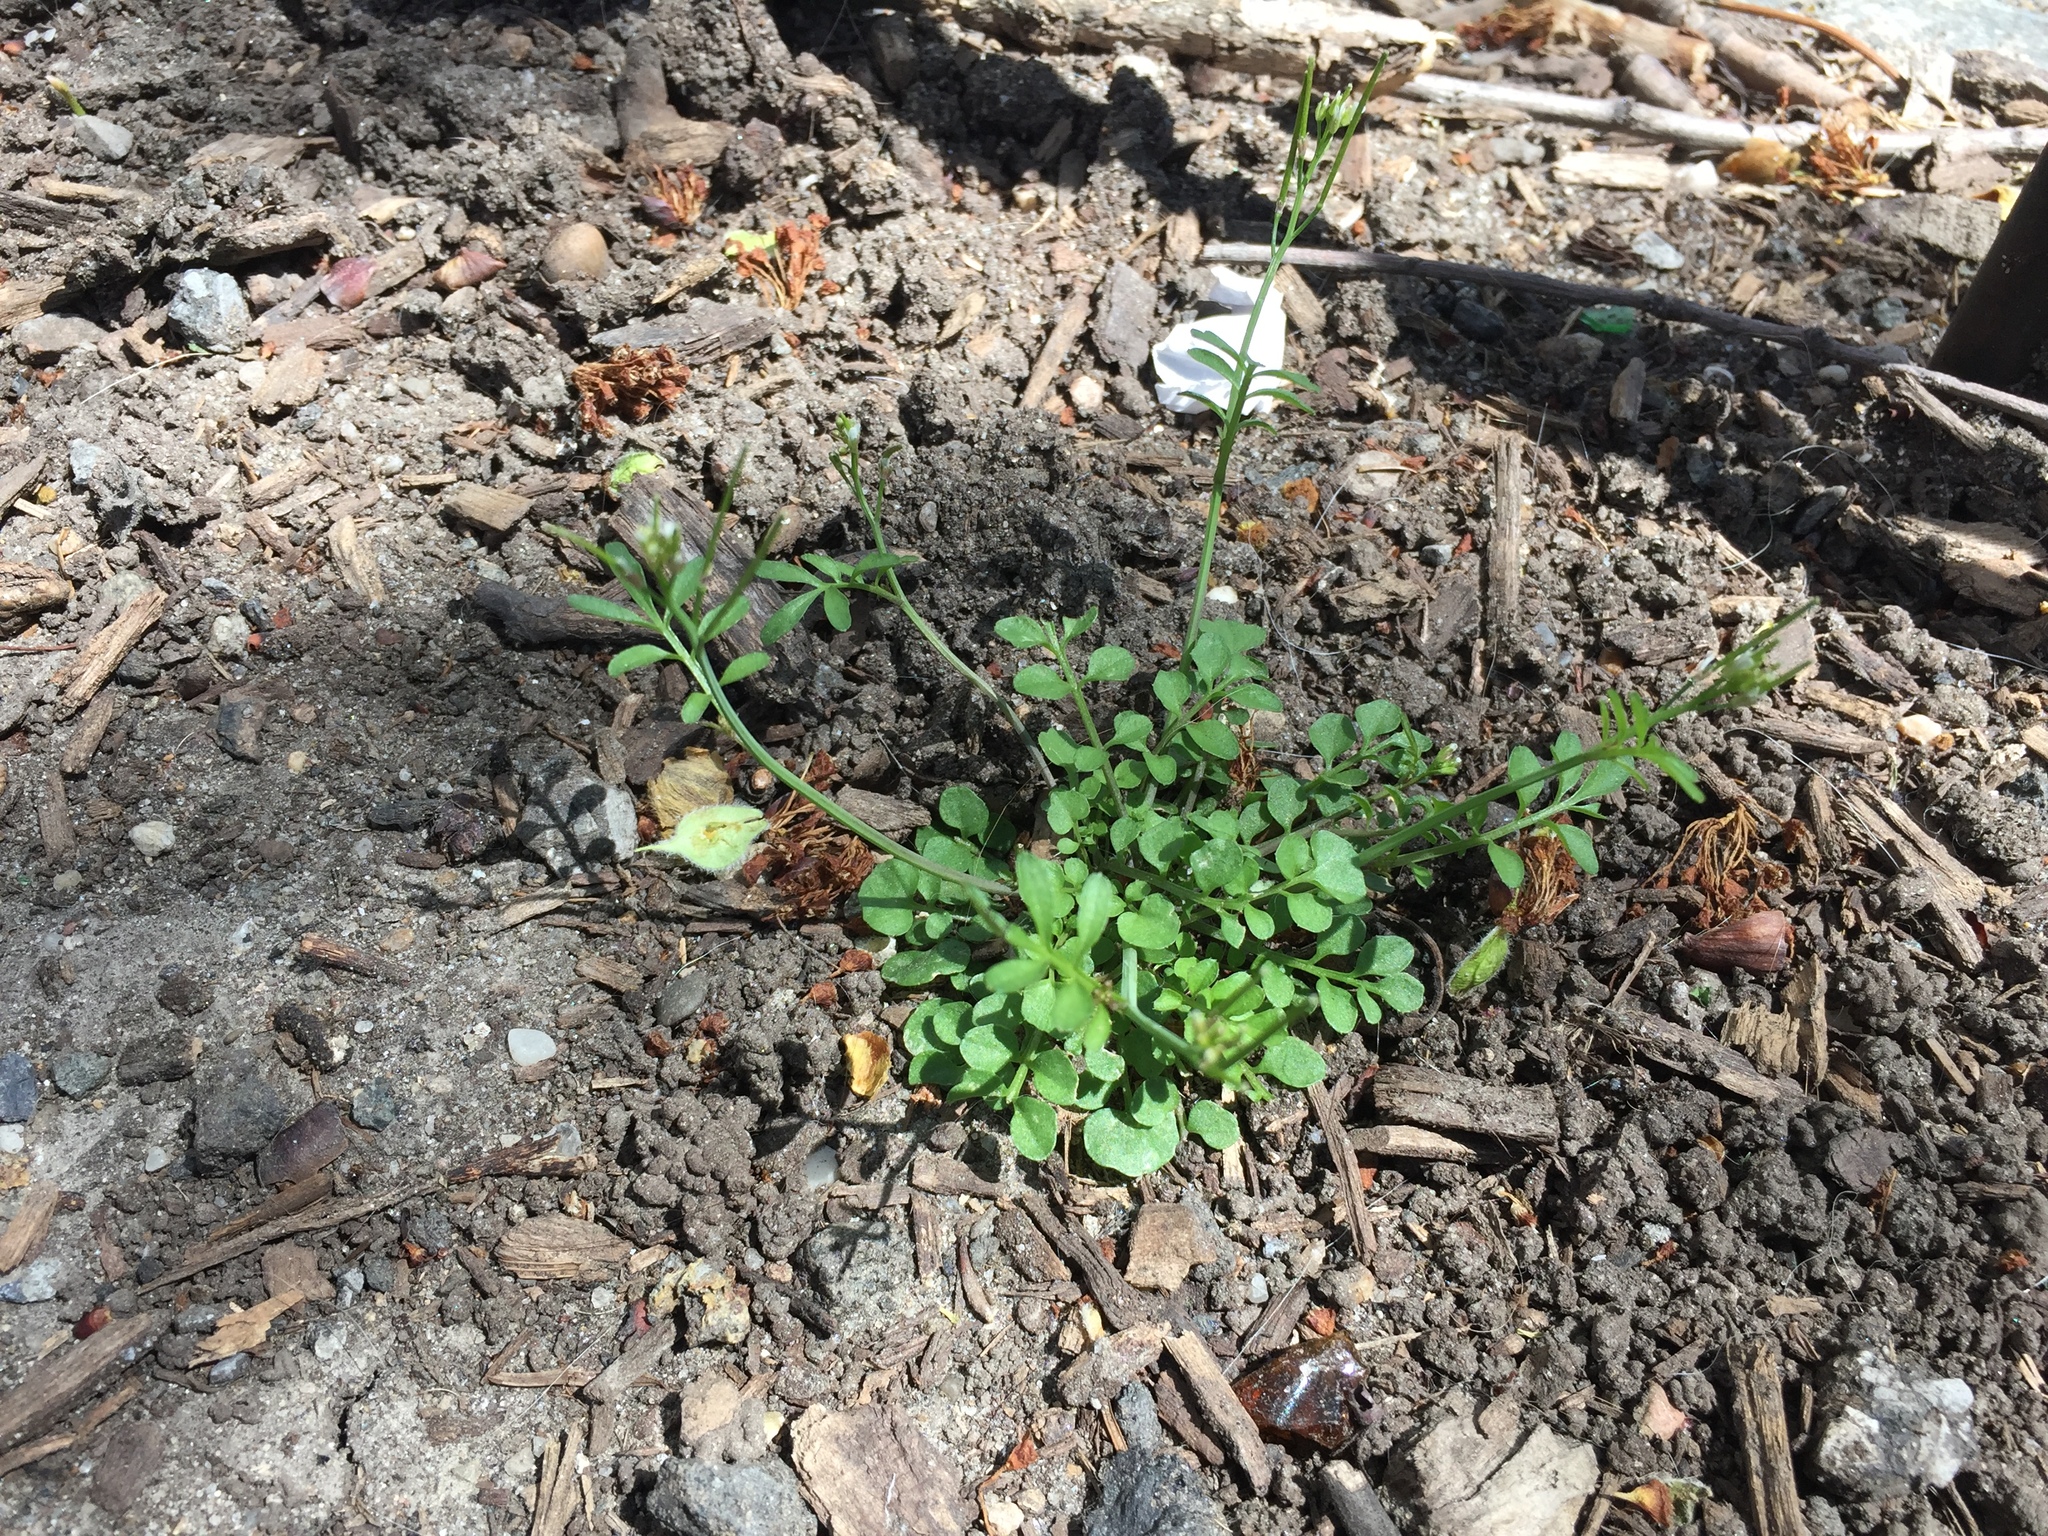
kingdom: Plantae
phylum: Tracheophyta
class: Magnoliopsida
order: Brassicales
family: Brassicaceae
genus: Cardamine
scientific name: Cardamine hirsuta
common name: Hairy bittercress
